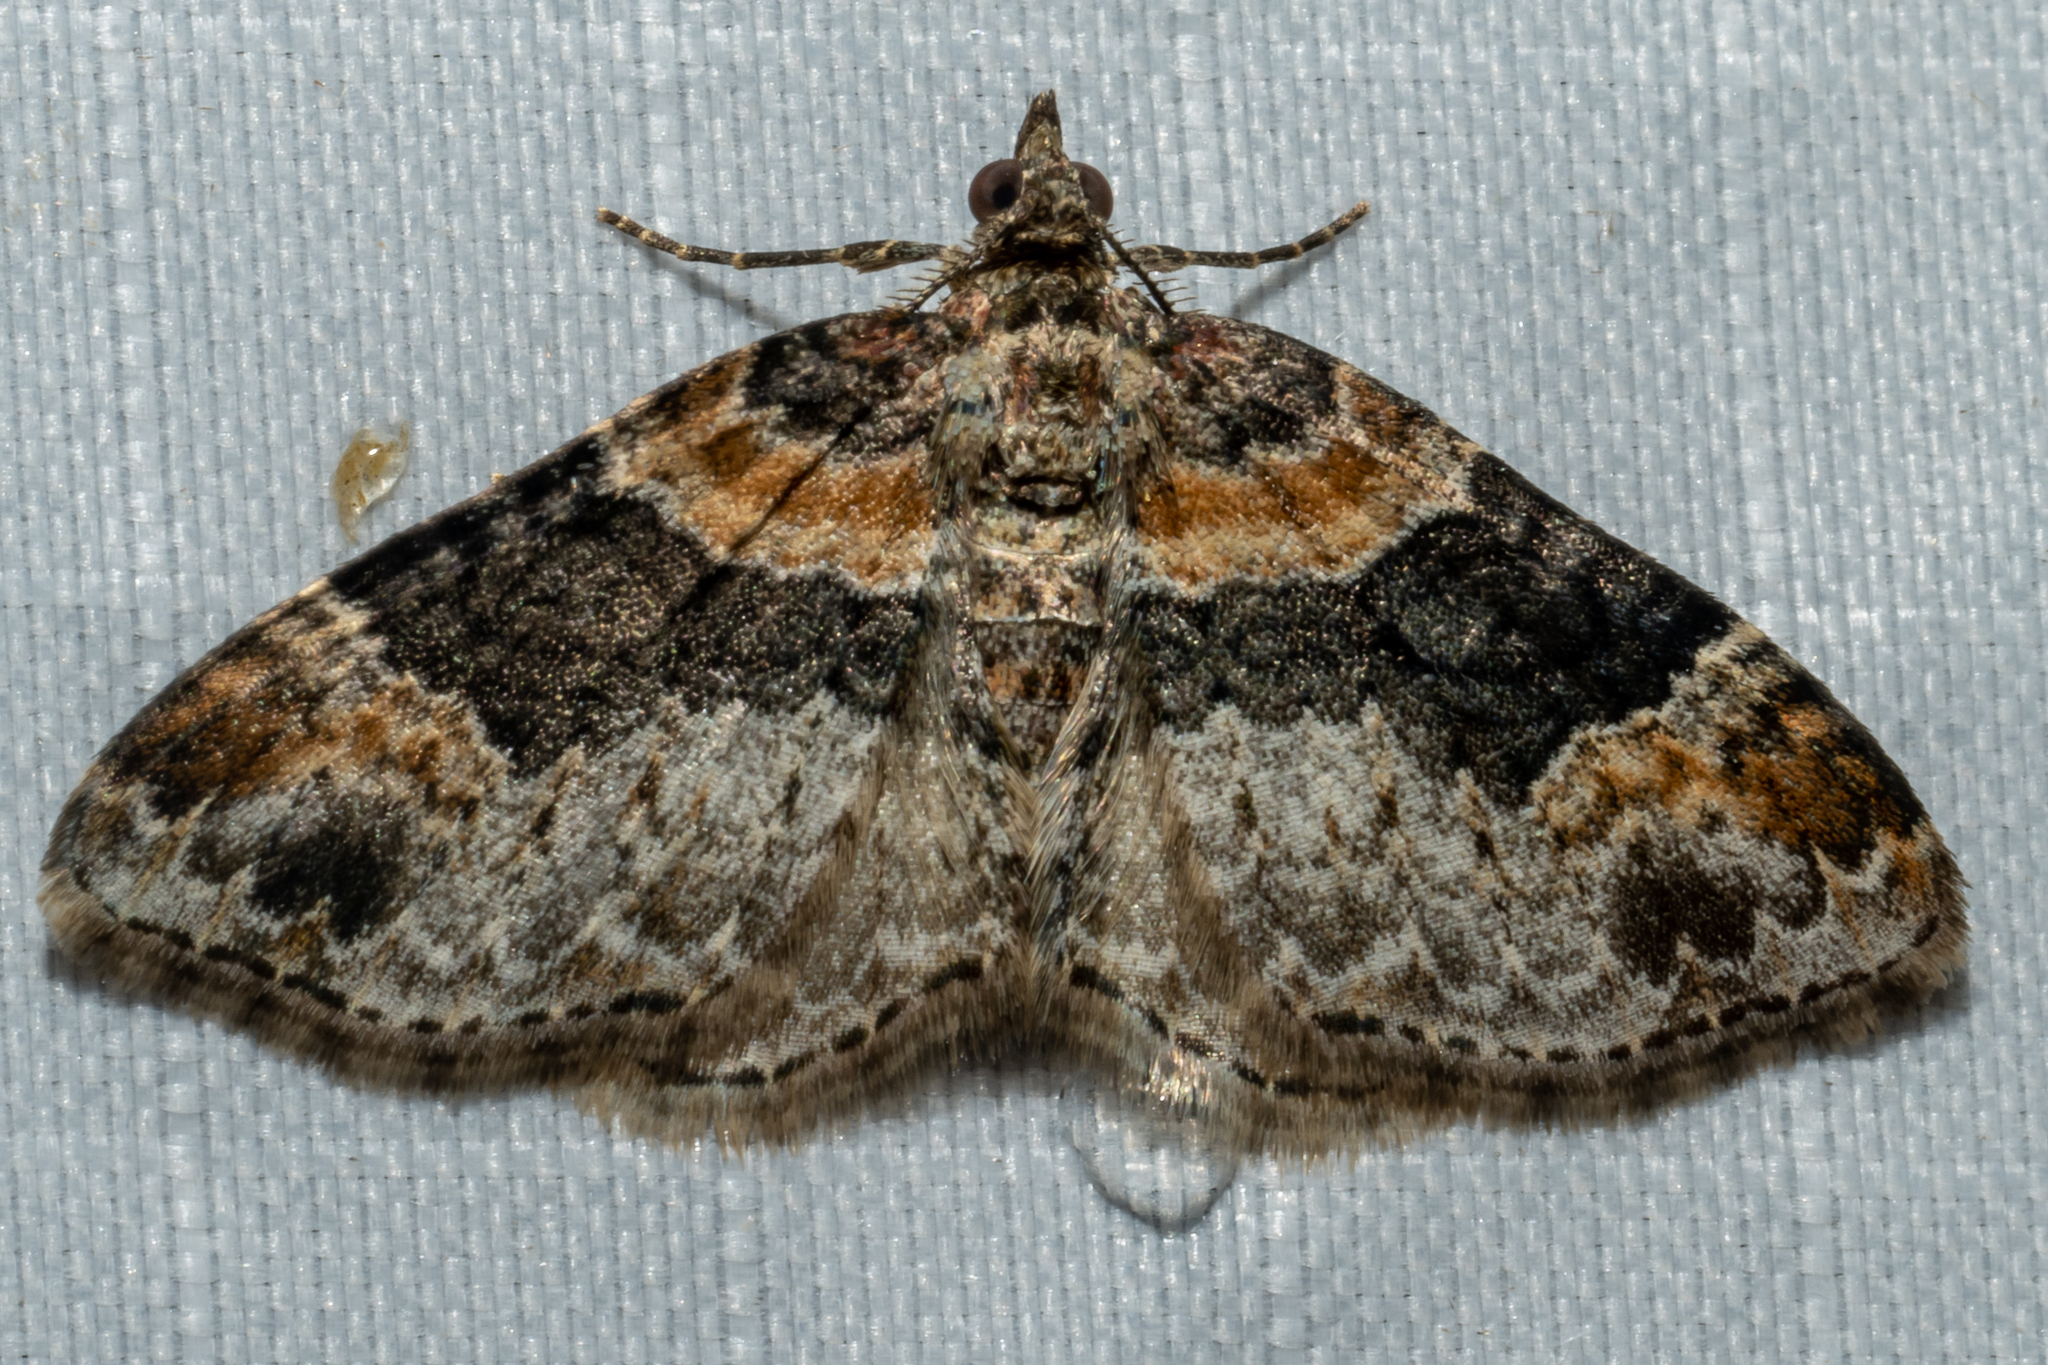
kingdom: Animalia
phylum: Arthropoda
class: Insecta
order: Lepidoptera
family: Geometridae
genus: Xanthorhoe
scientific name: Xanthorhoe ferrugata
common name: Dark-barred twin-spot carpet
